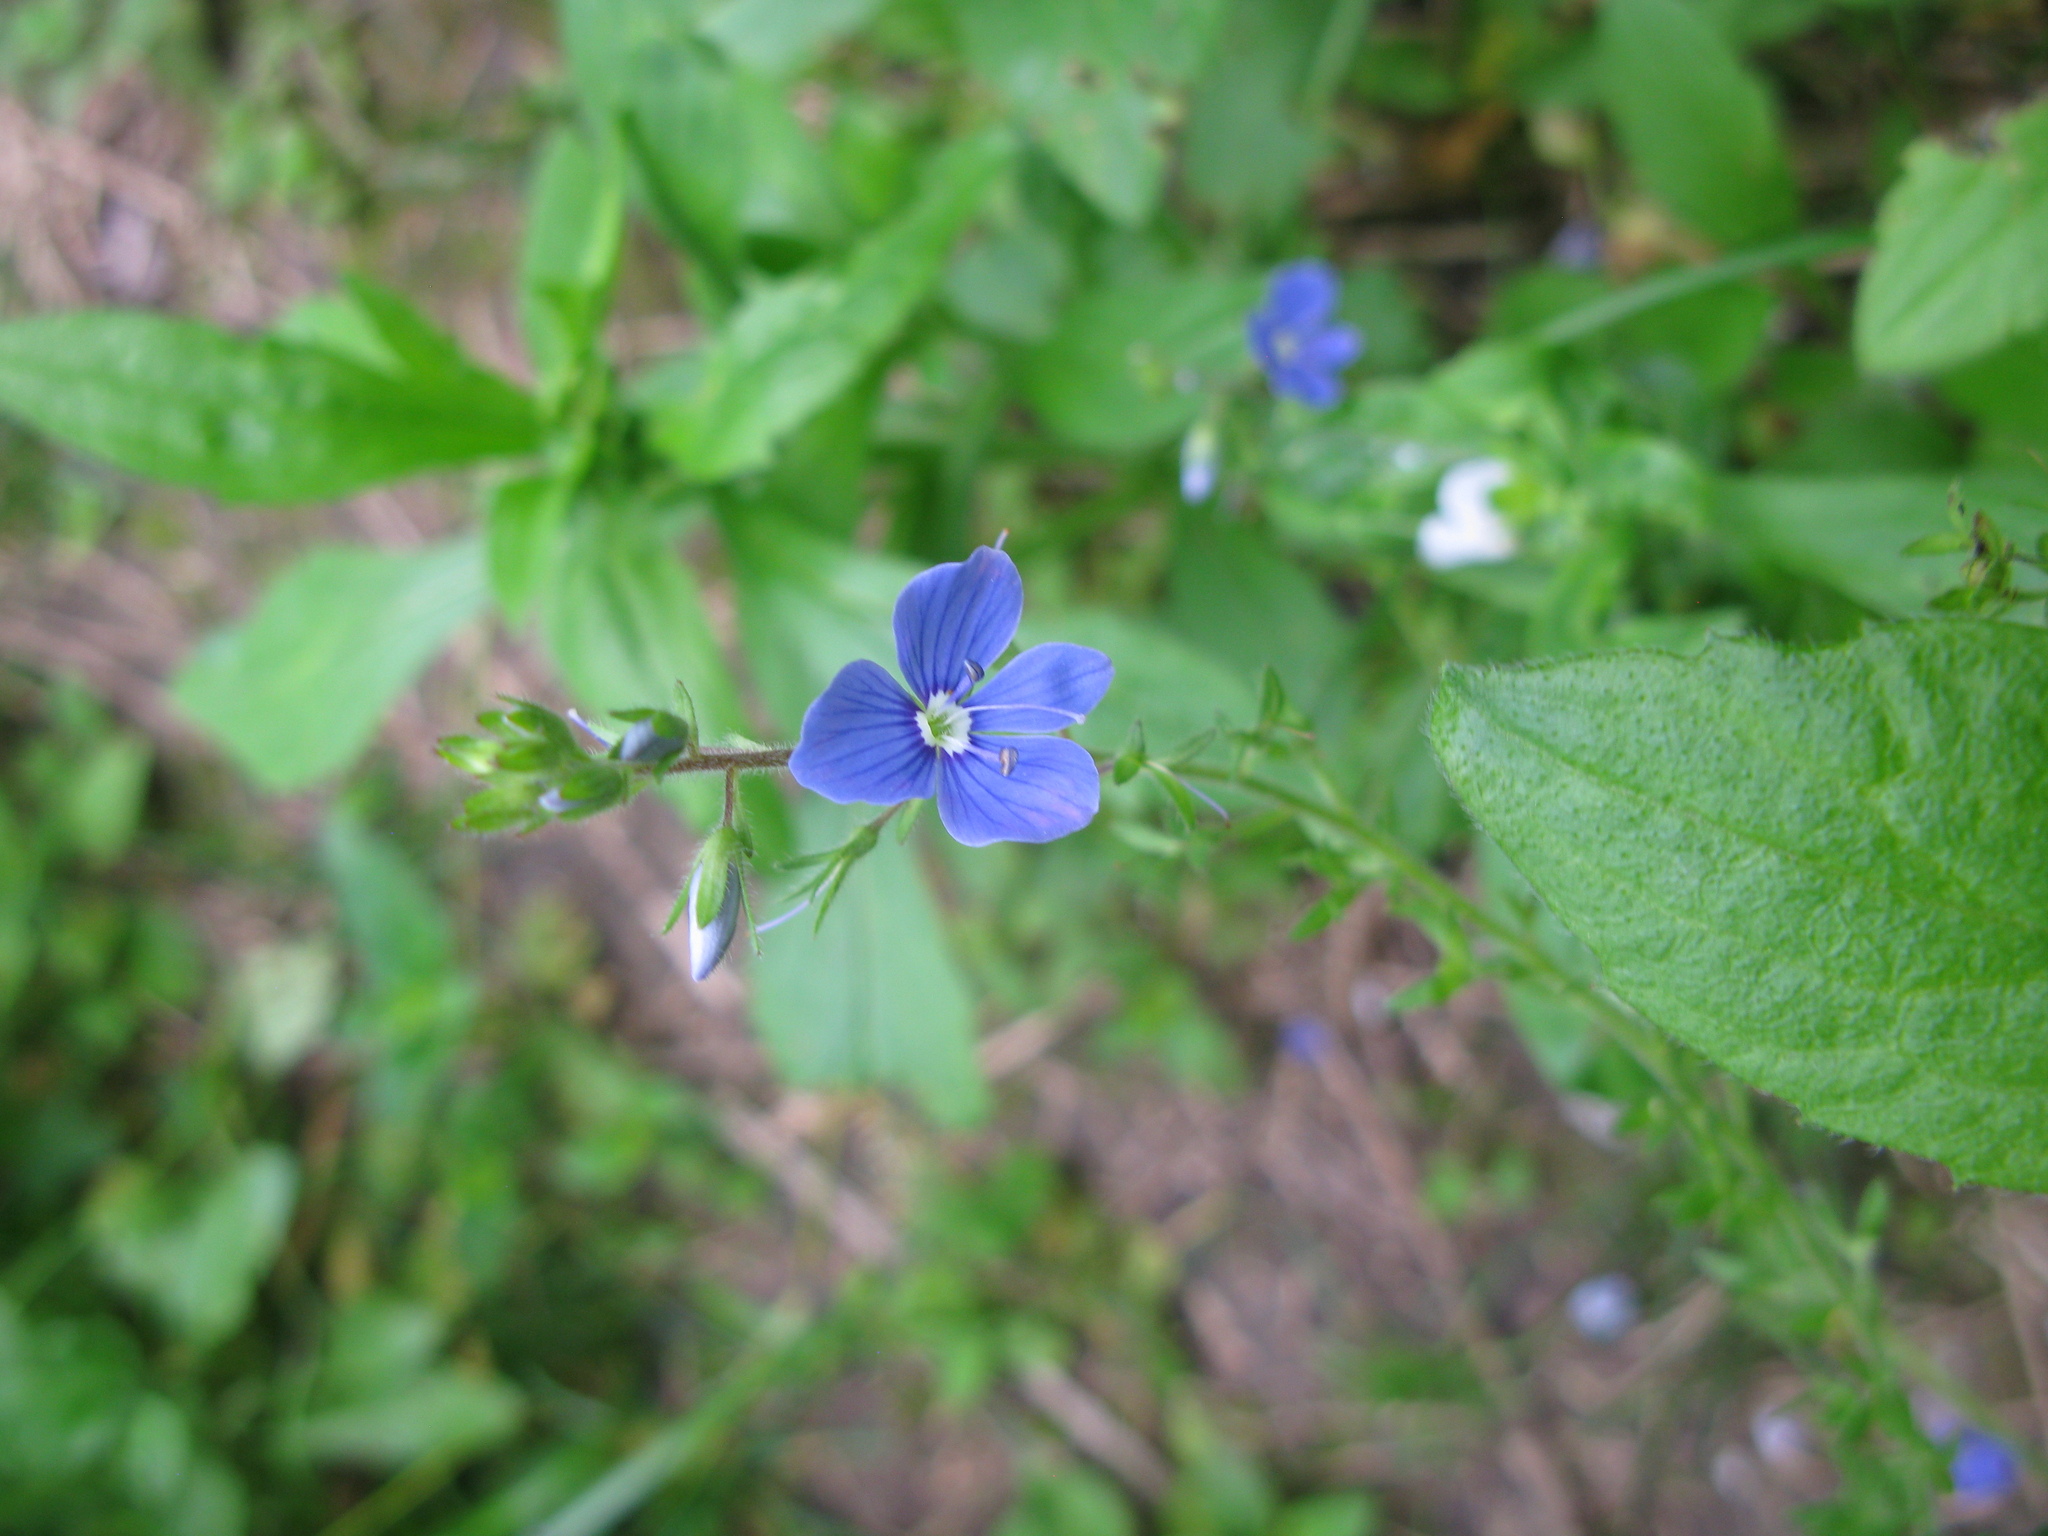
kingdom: Plantae
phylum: Tracheophyta
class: Magnoliopsida
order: Lamiales
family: Plantaginaceae
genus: Veronica
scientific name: Veronica chamaedrys
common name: Germander speedwell
